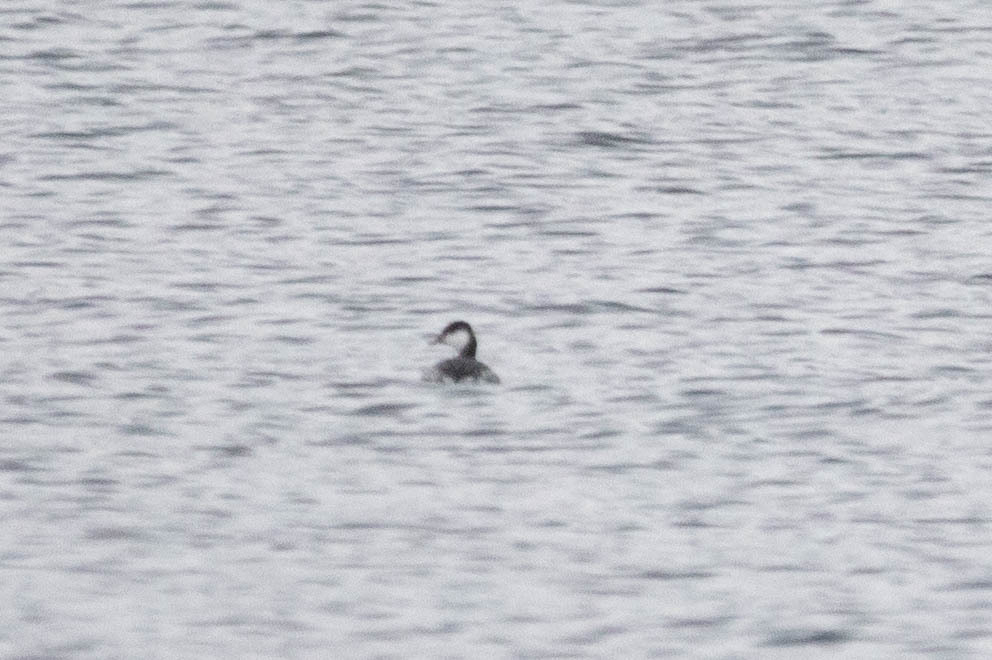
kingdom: Animalia
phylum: Chordata
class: Aves
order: Podicipediformes
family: Podicipedidae
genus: Podiceps
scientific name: Podiceps auritus
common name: Horned grebe
